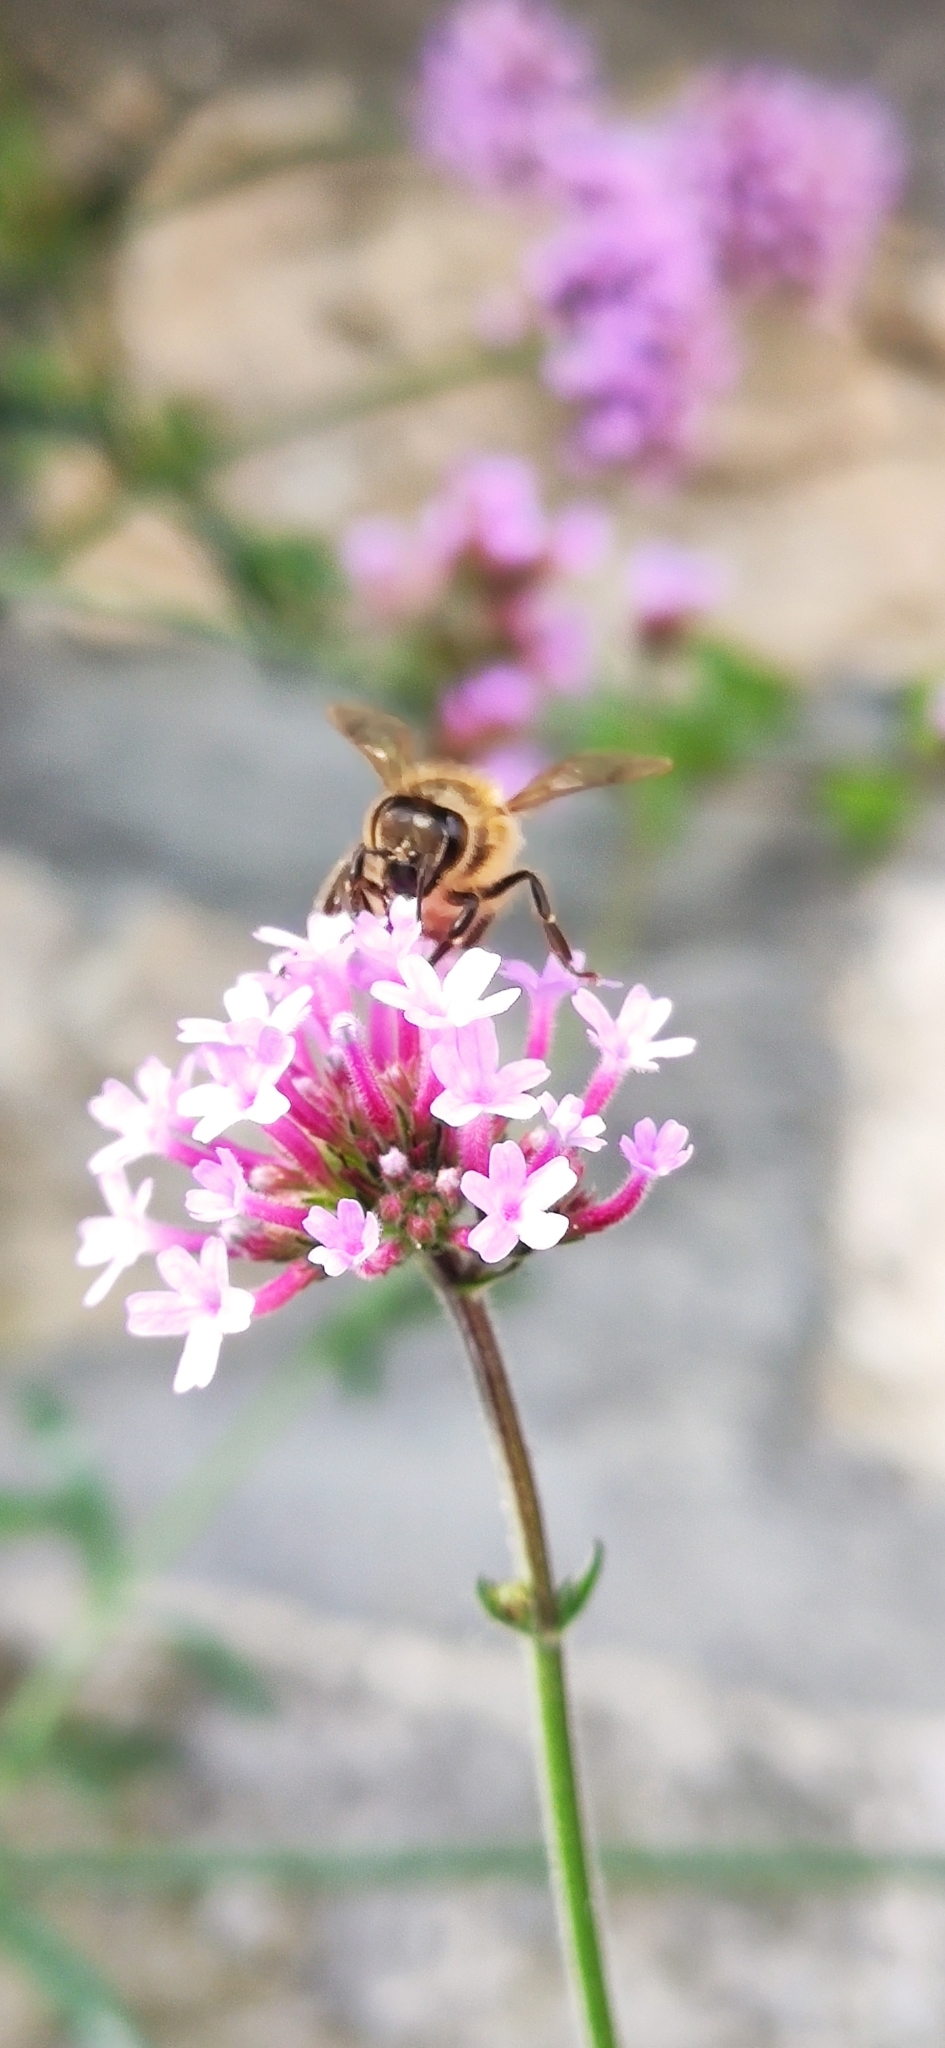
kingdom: Animalia
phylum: Arthropoda
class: Insecta
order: Hymenoptera
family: Apidae
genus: Apis
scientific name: Apis mellifera
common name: Honey bee
